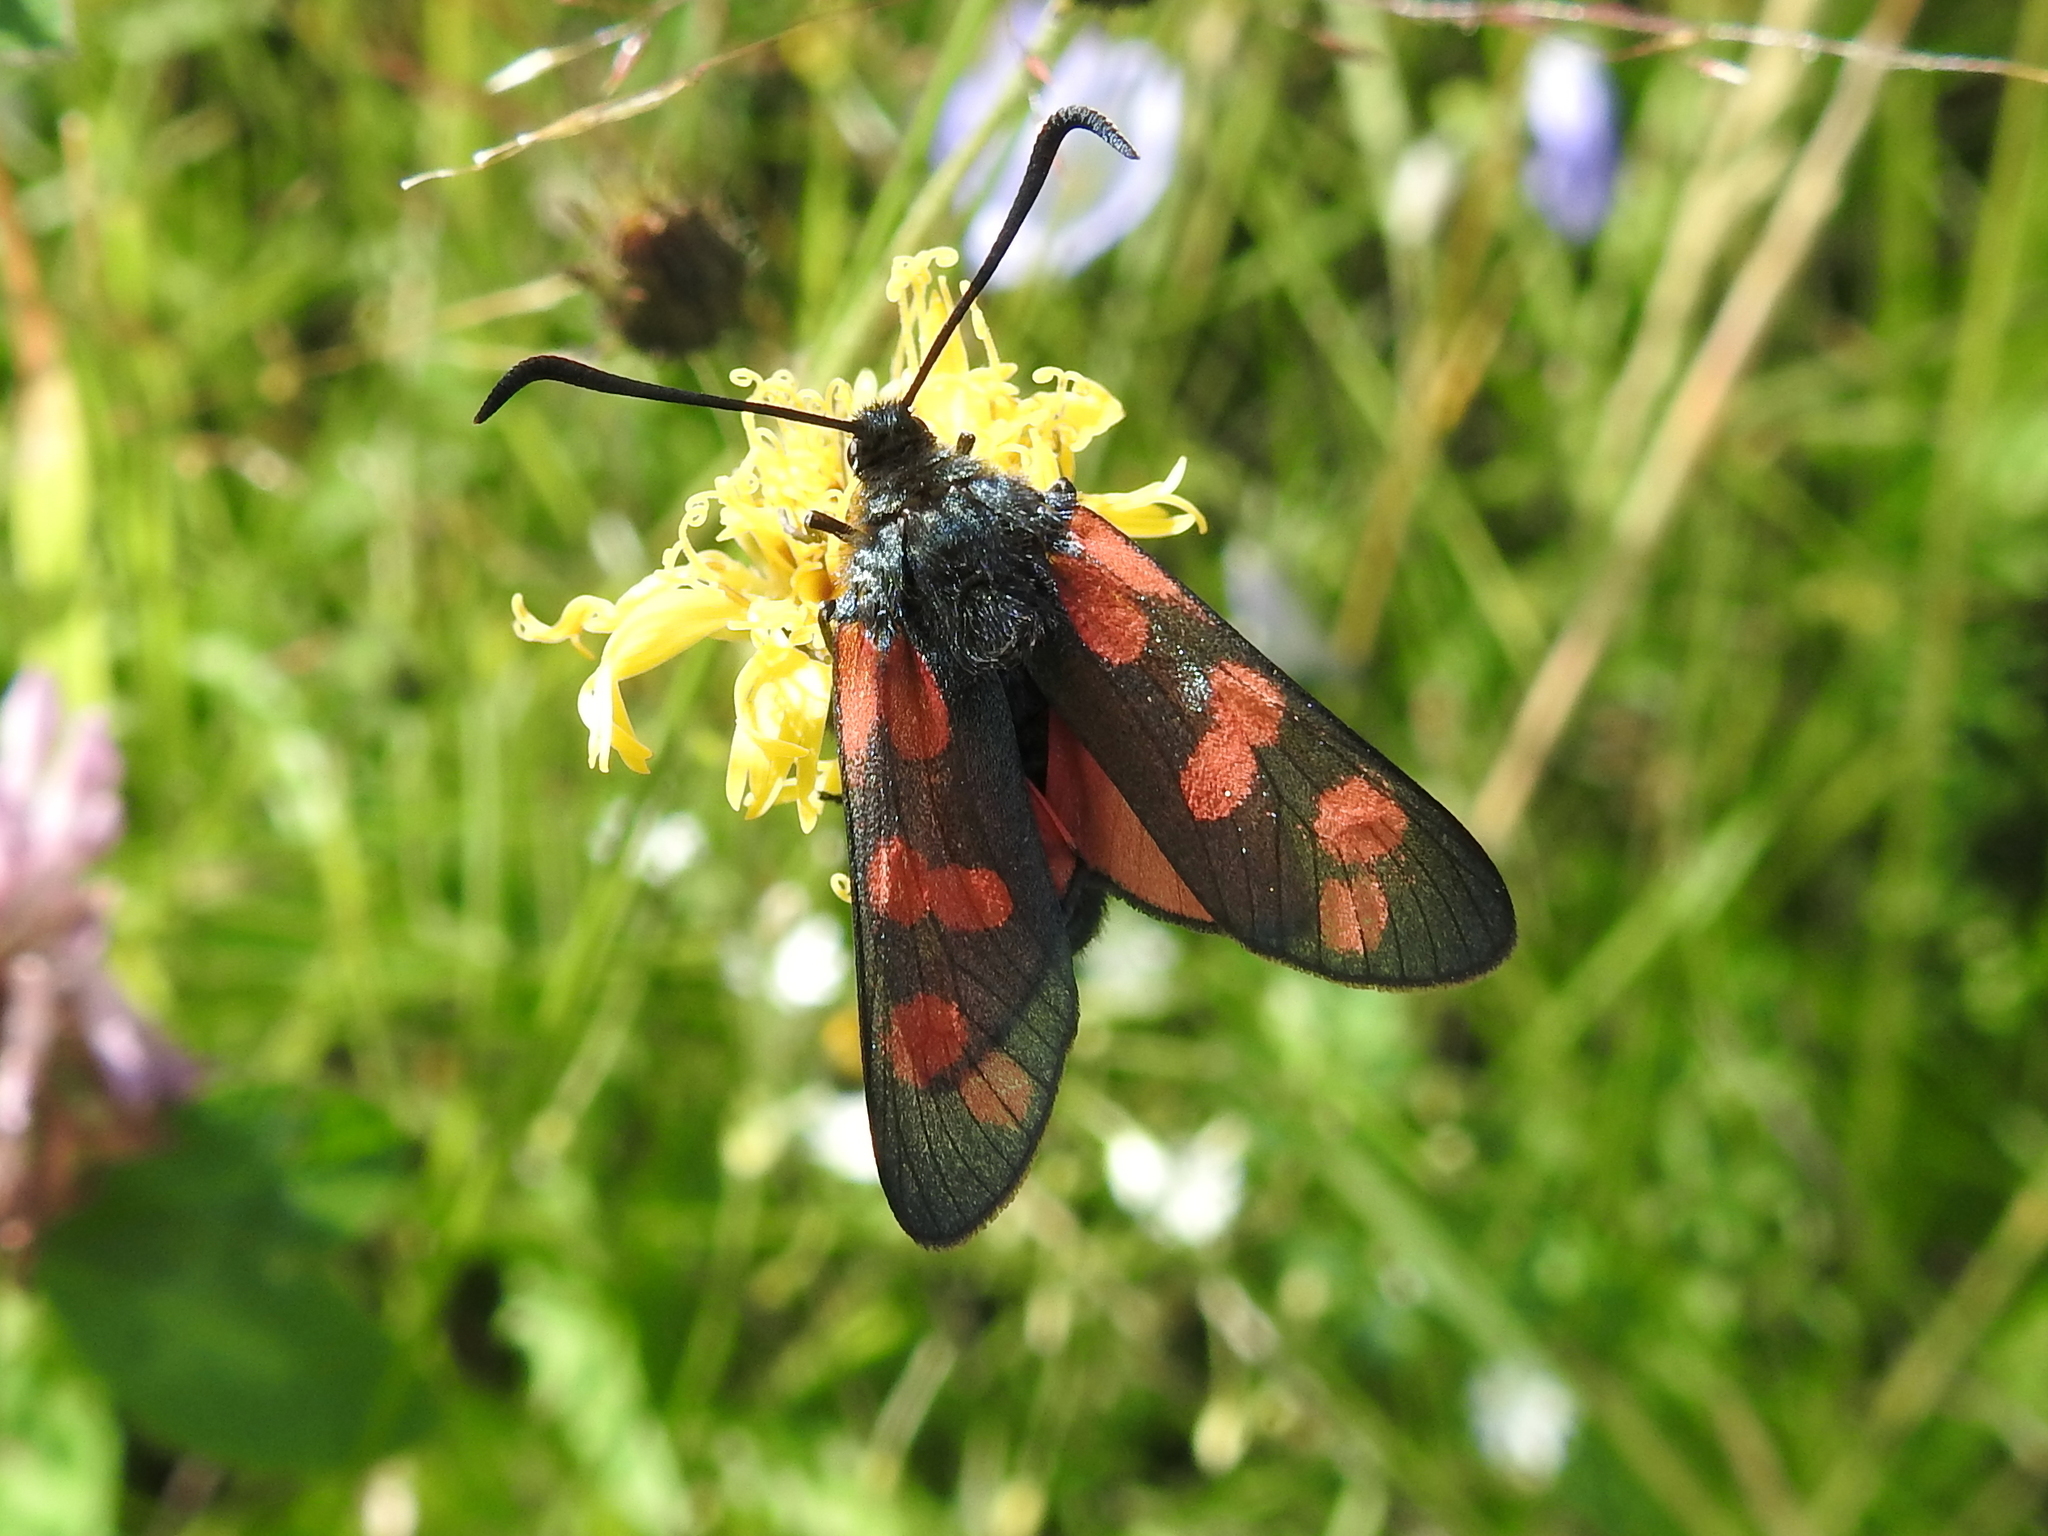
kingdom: Animalia
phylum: Arthropoda
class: Insecta
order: Lepidoptera
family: Zygaenidae
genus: Zygaena
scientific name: Zygaena filipendulae
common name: Six-spot burnet
